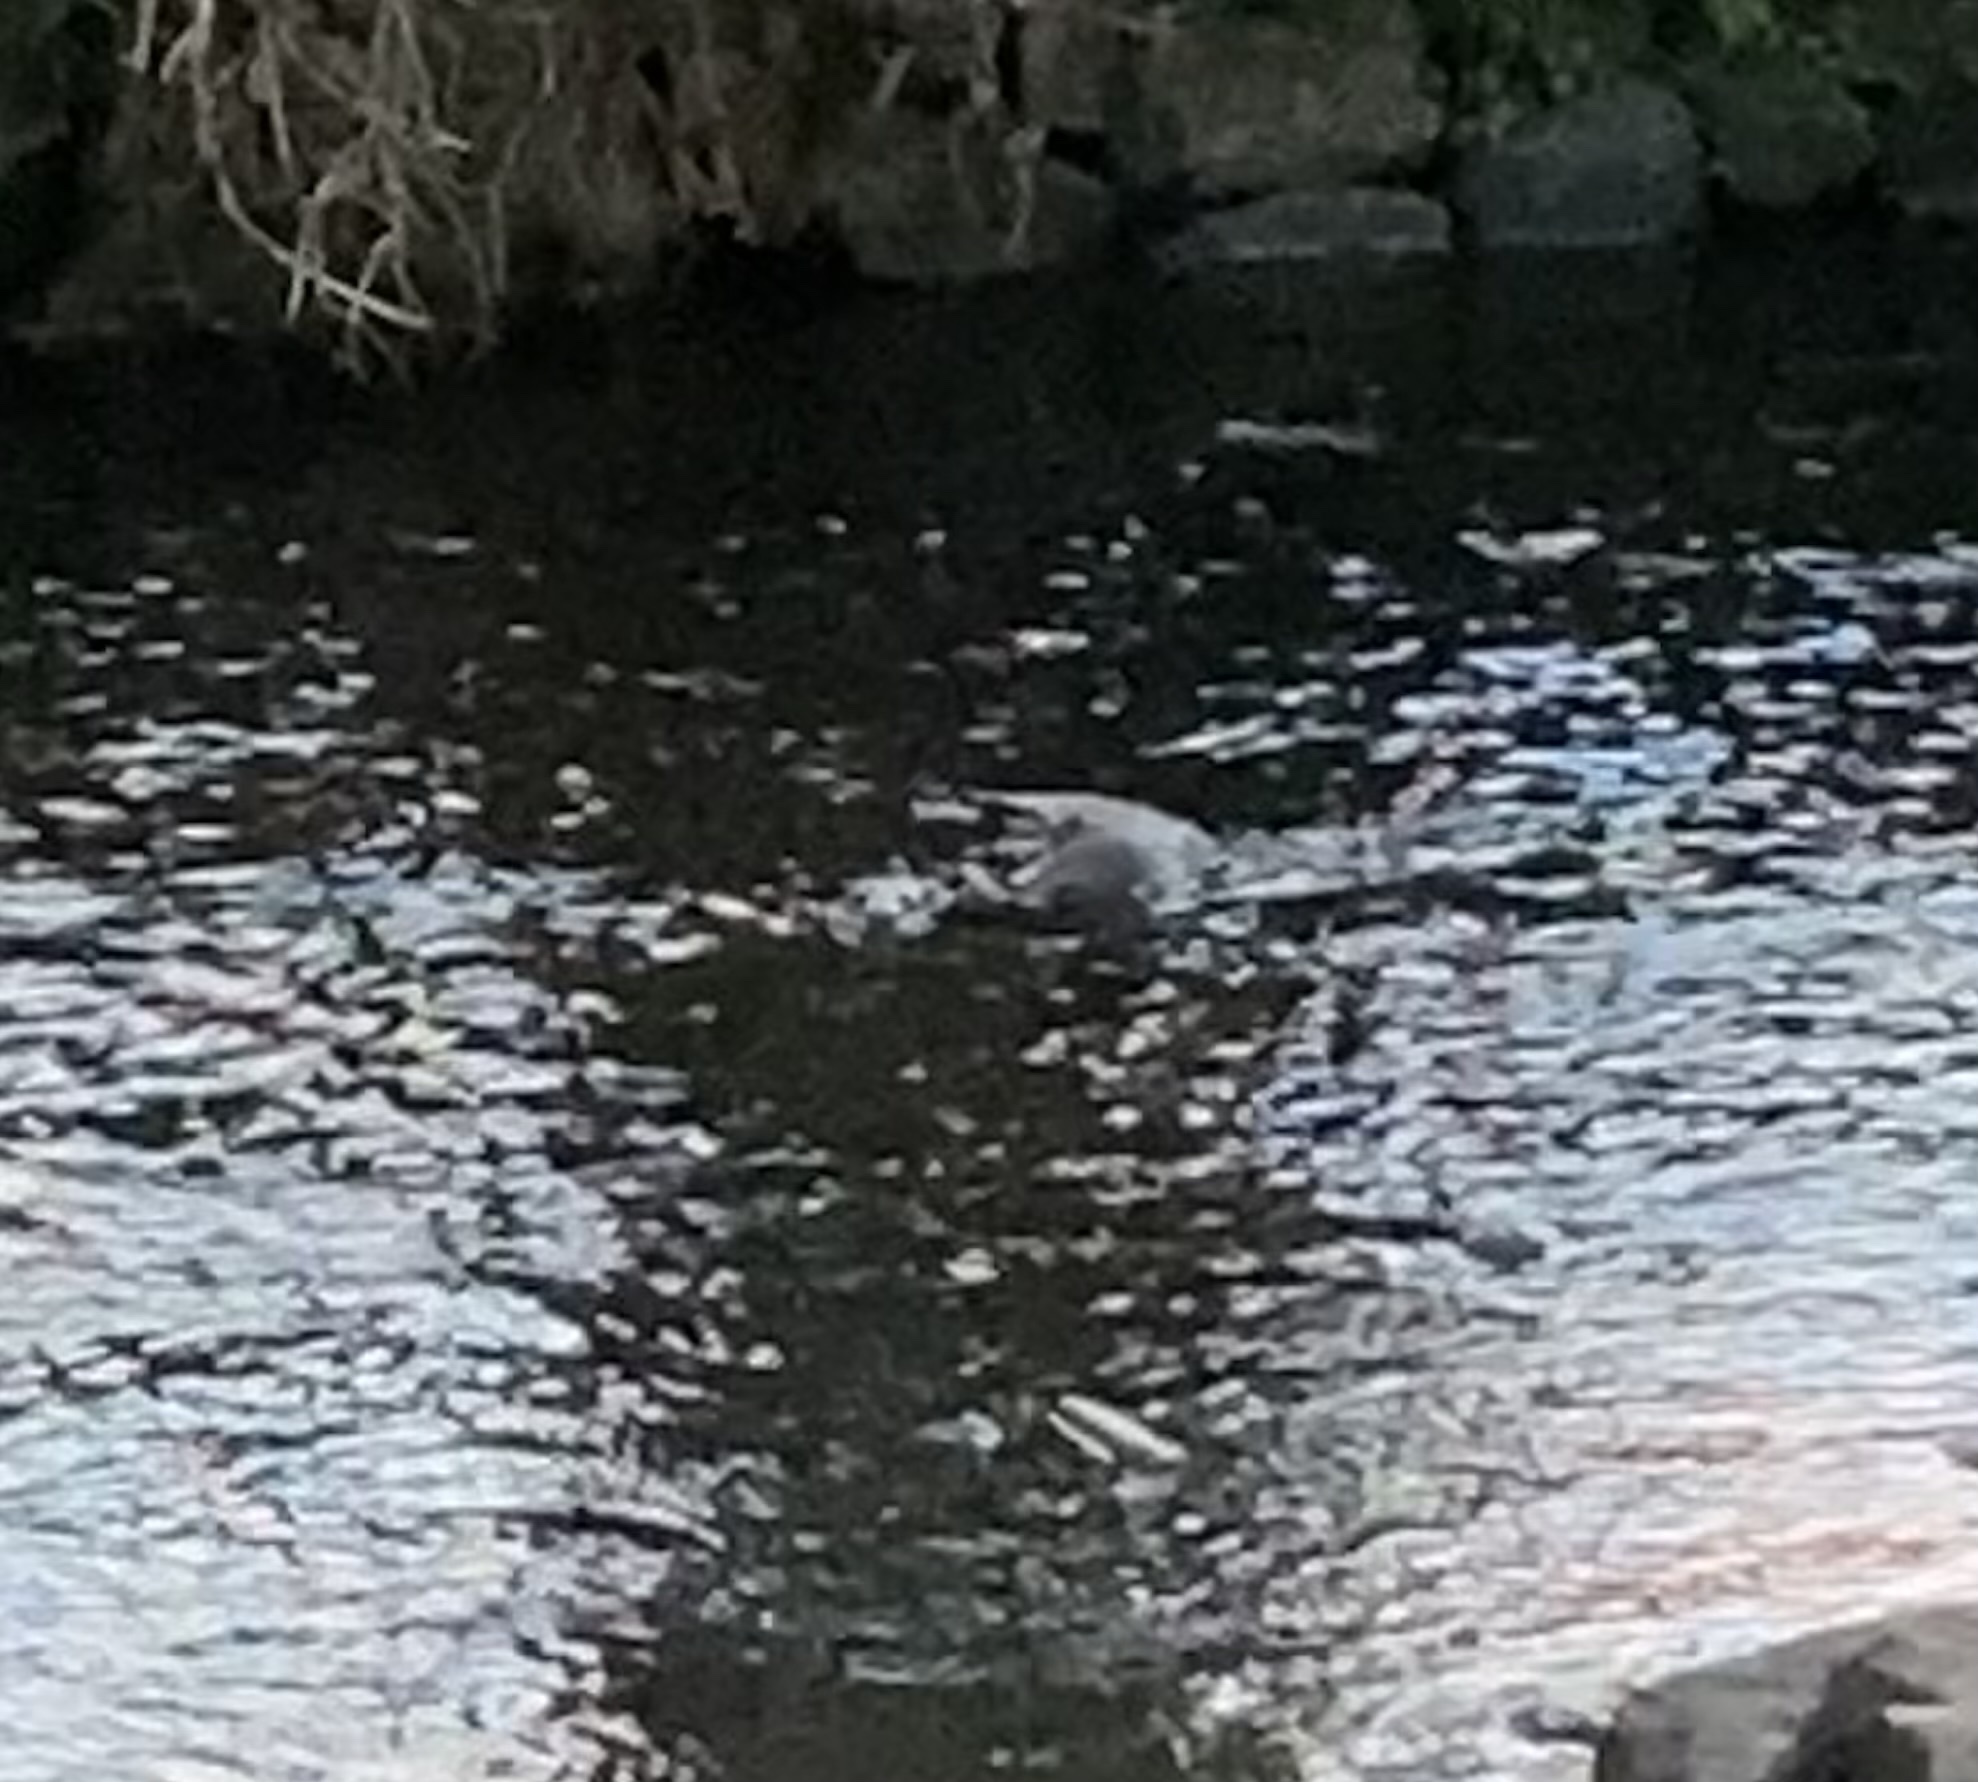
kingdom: Animalia
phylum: Chordata
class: Mammalia
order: Carnivora
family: Mustelidae
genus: Lutra
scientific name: Lutra lutra
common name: European otter
